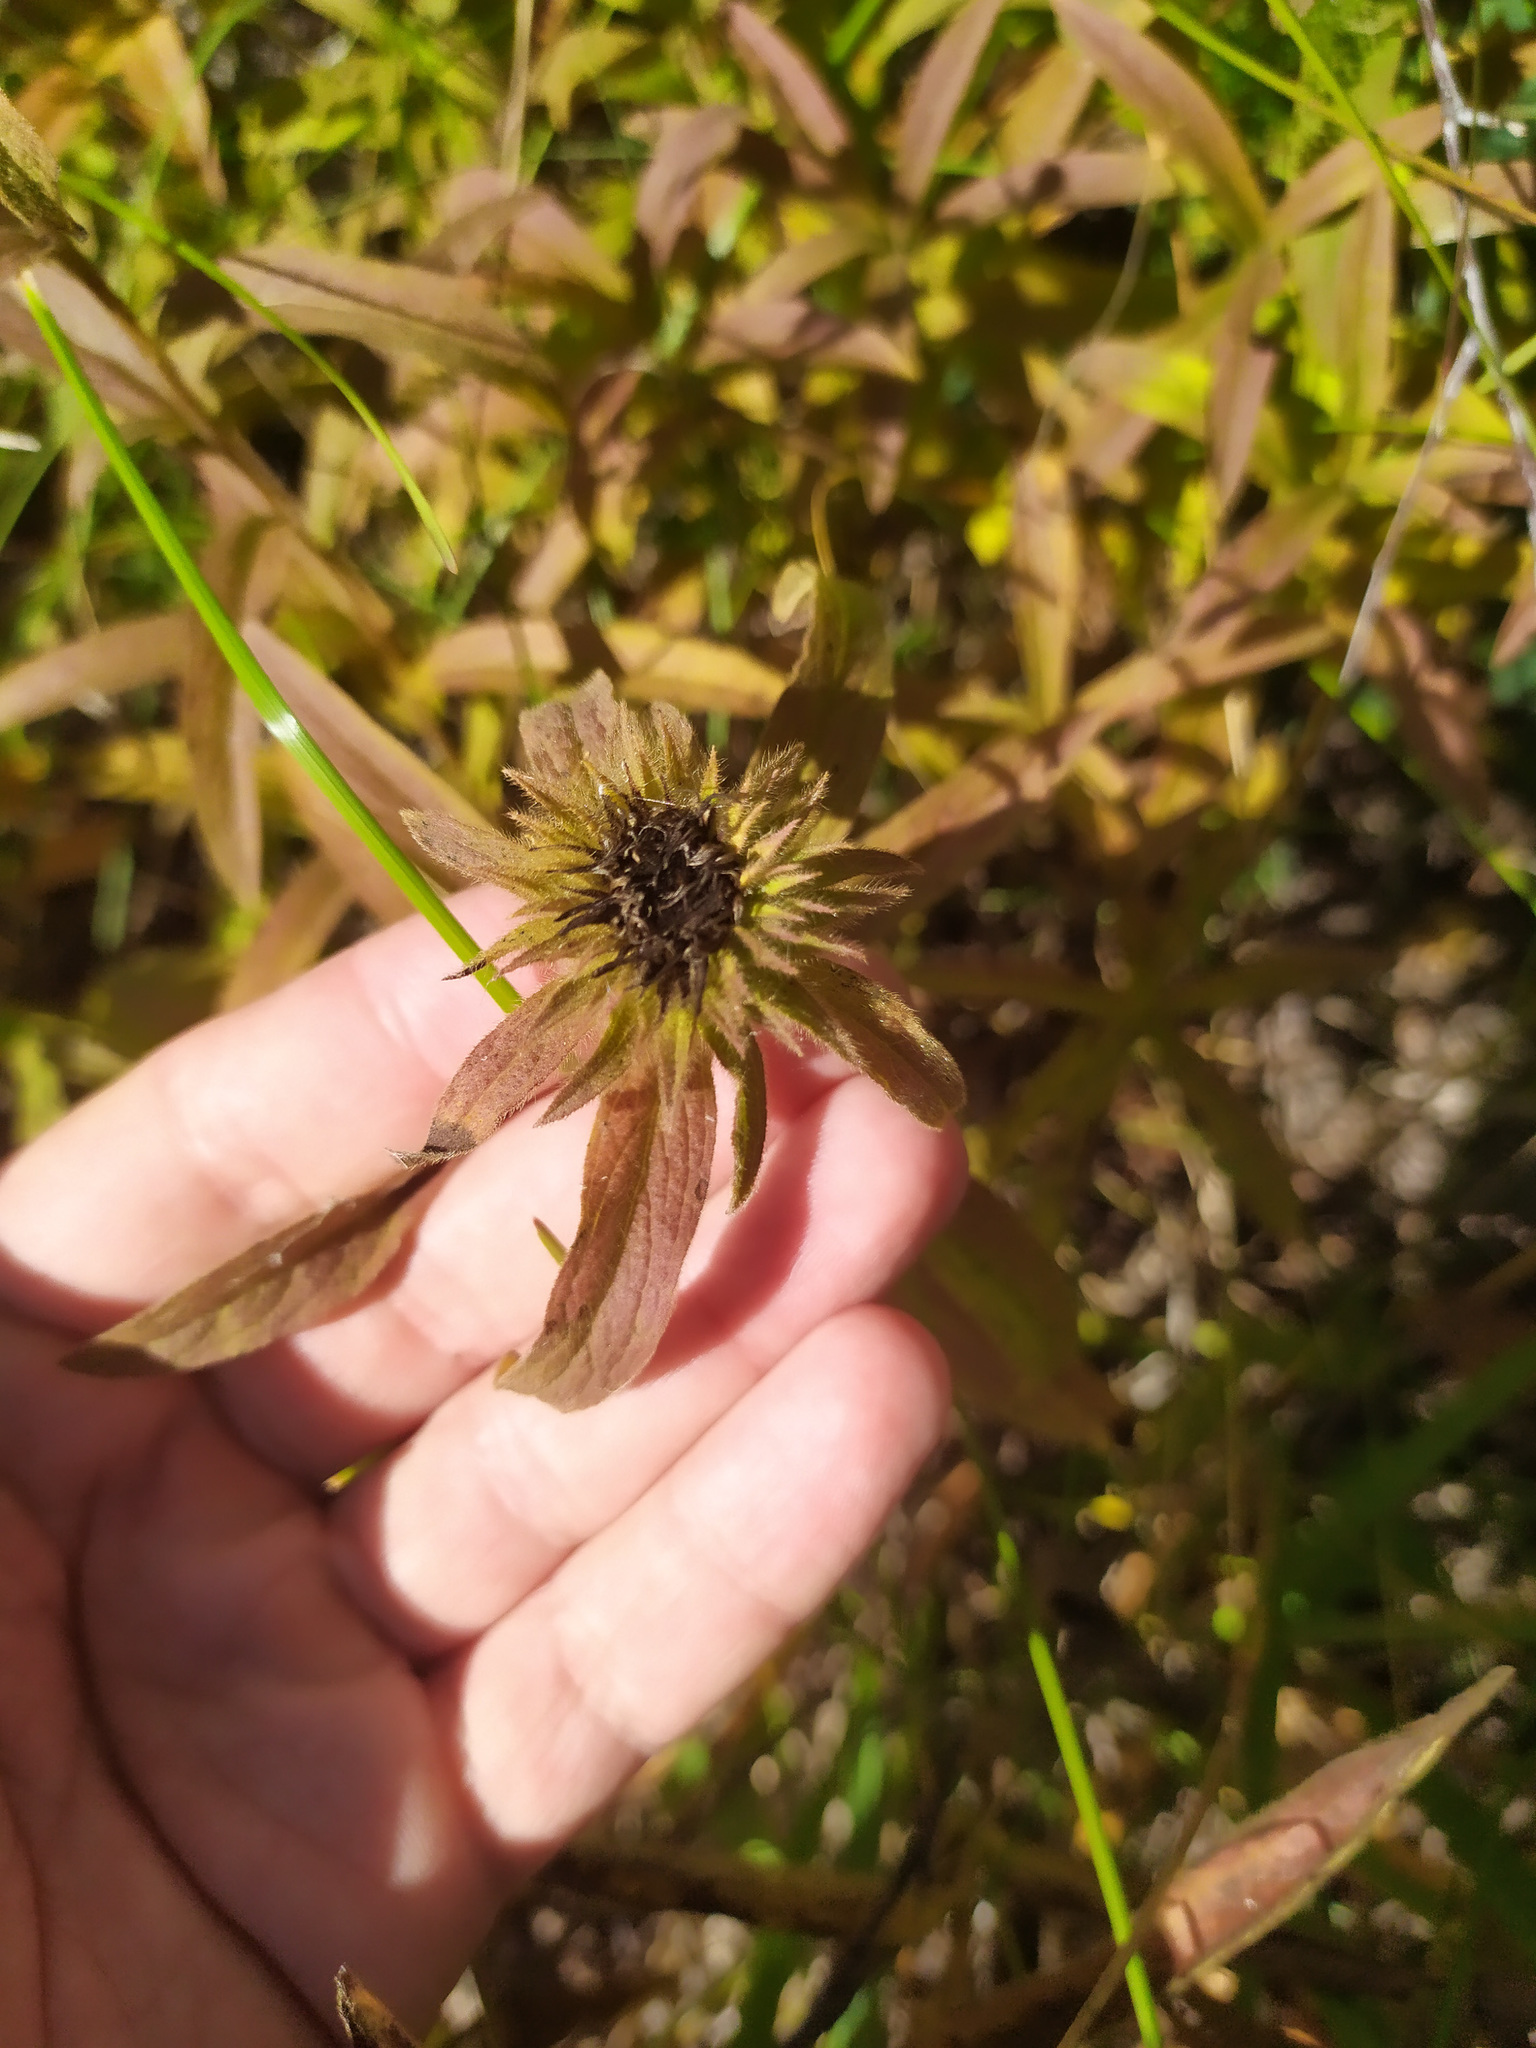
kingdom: Plantae
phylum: Tracheophyta
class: Magnoliopsida
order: Asterales
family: Asteraceae
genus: Pentanema
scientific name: Pentanema hirtum
